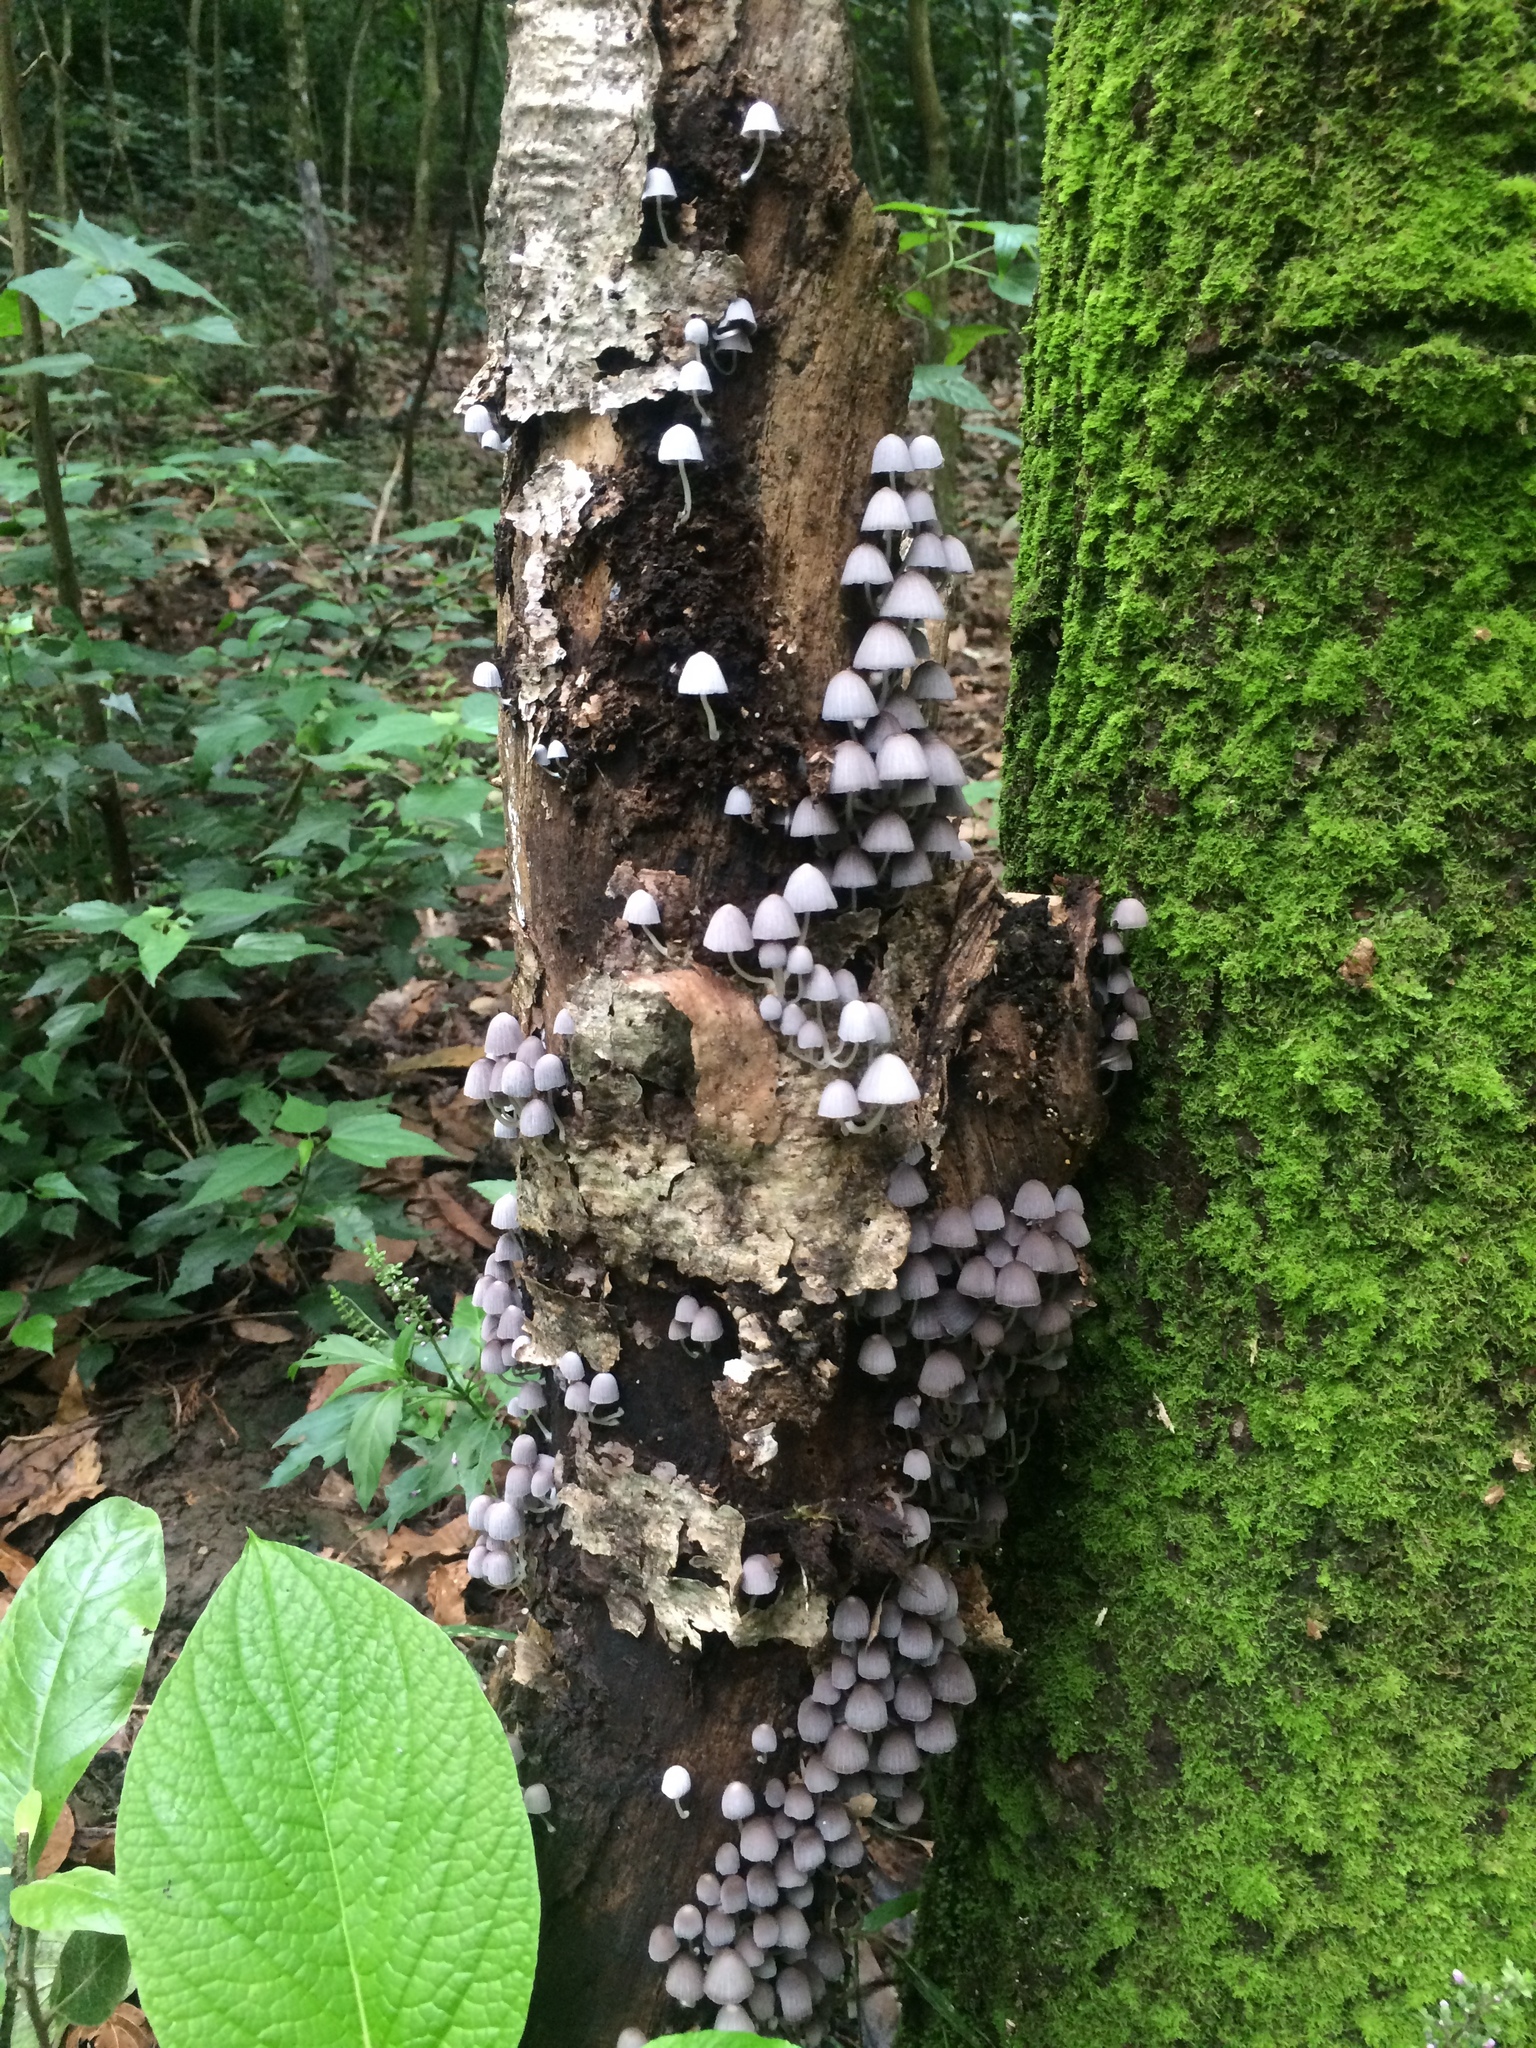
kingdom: Fungi
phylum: Basidiomycota
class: Agaricomycetes
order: Agaricales
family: Psathyrellaceae
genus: Coprinellus
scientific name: Coprinellus disseminatus
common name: Fairies' bonnets
